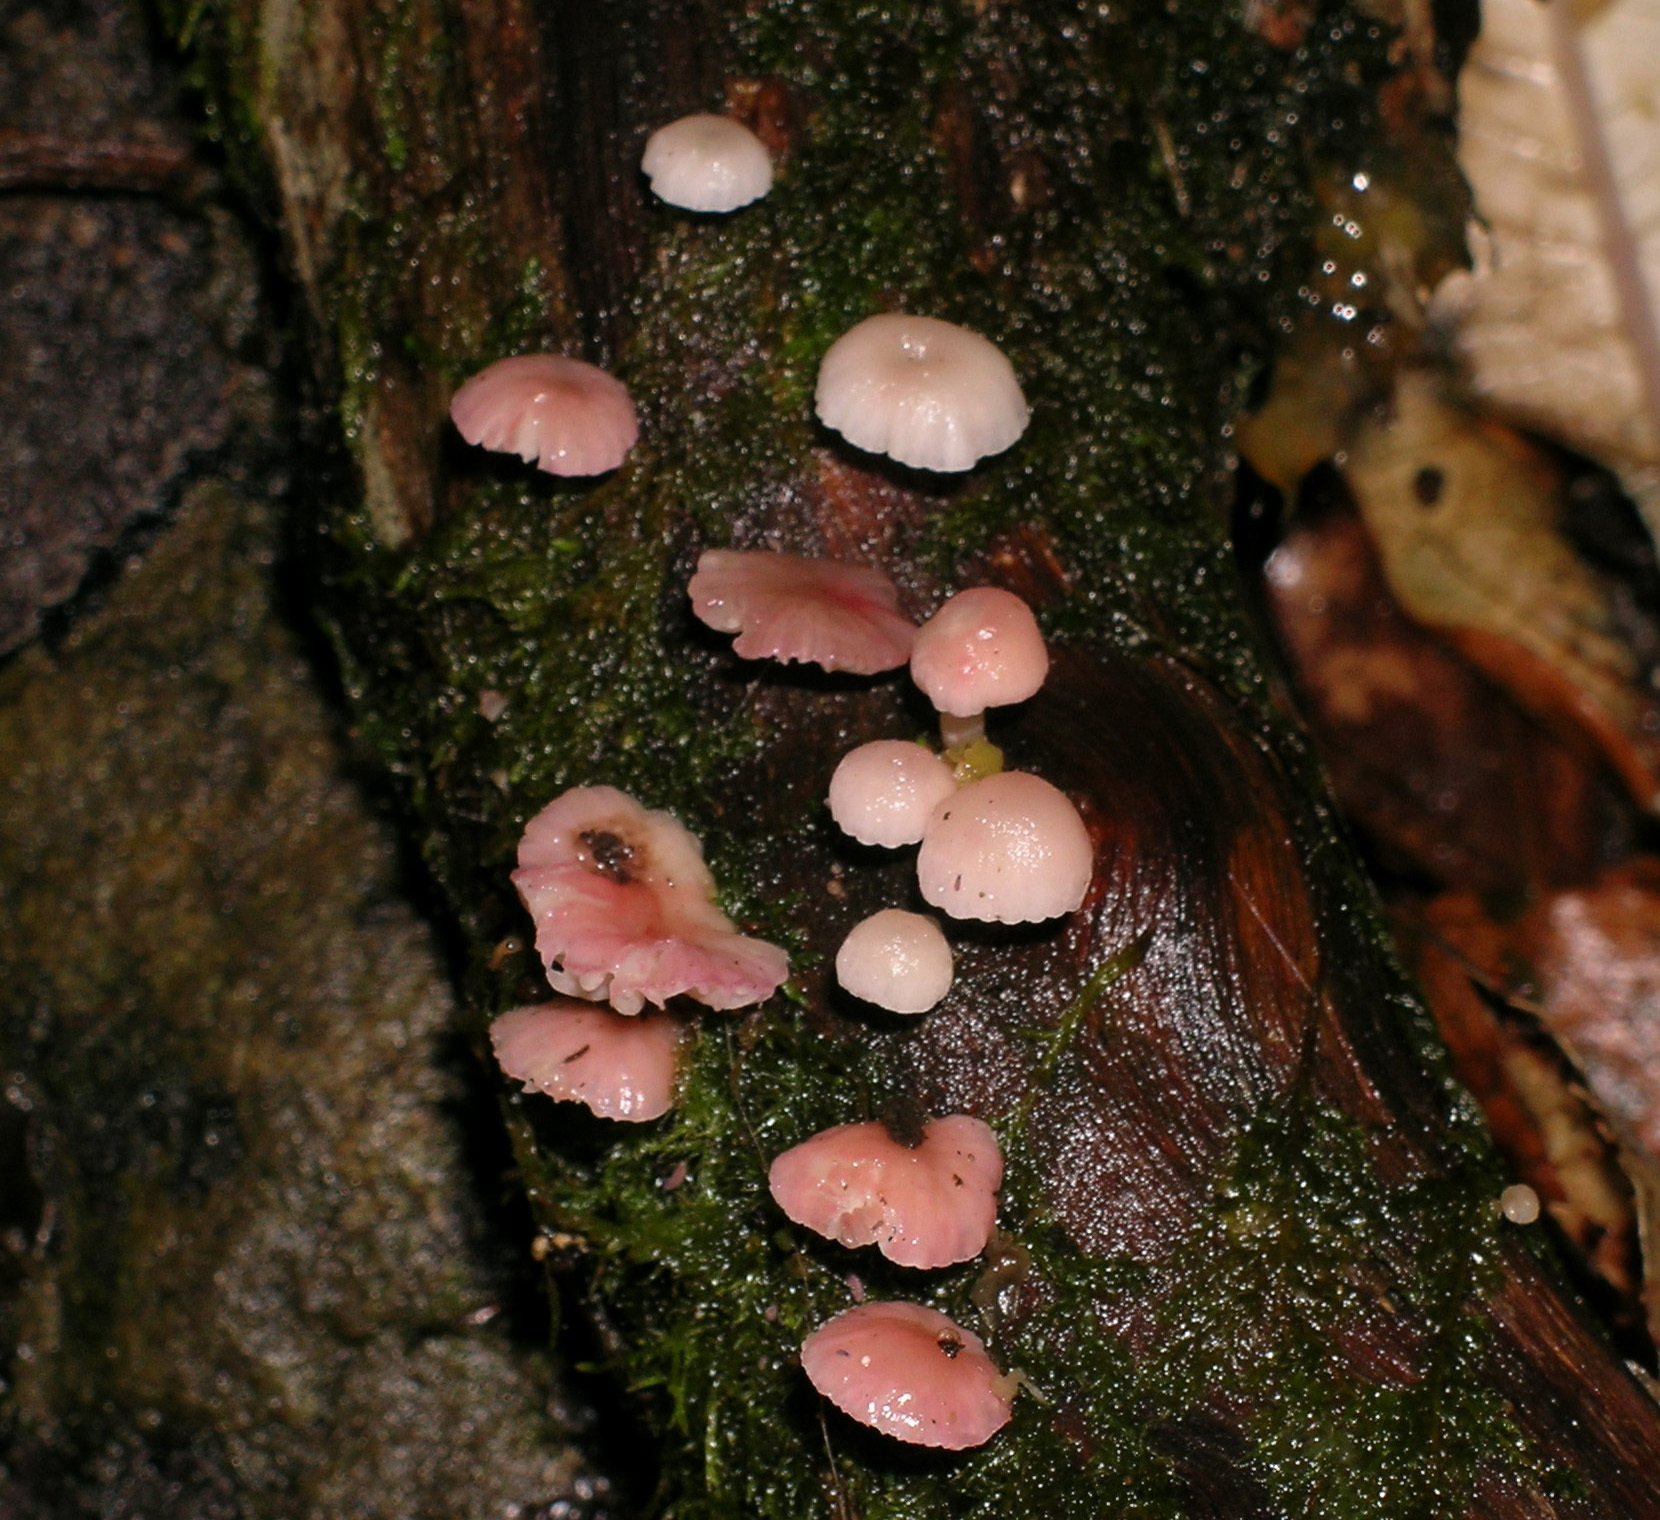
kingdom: Fungi
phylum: Basidiomycota
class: Agaricomycetes
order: Agaricales
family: Mycenaceae
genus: Mycena
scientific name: Mycena roseoflava
